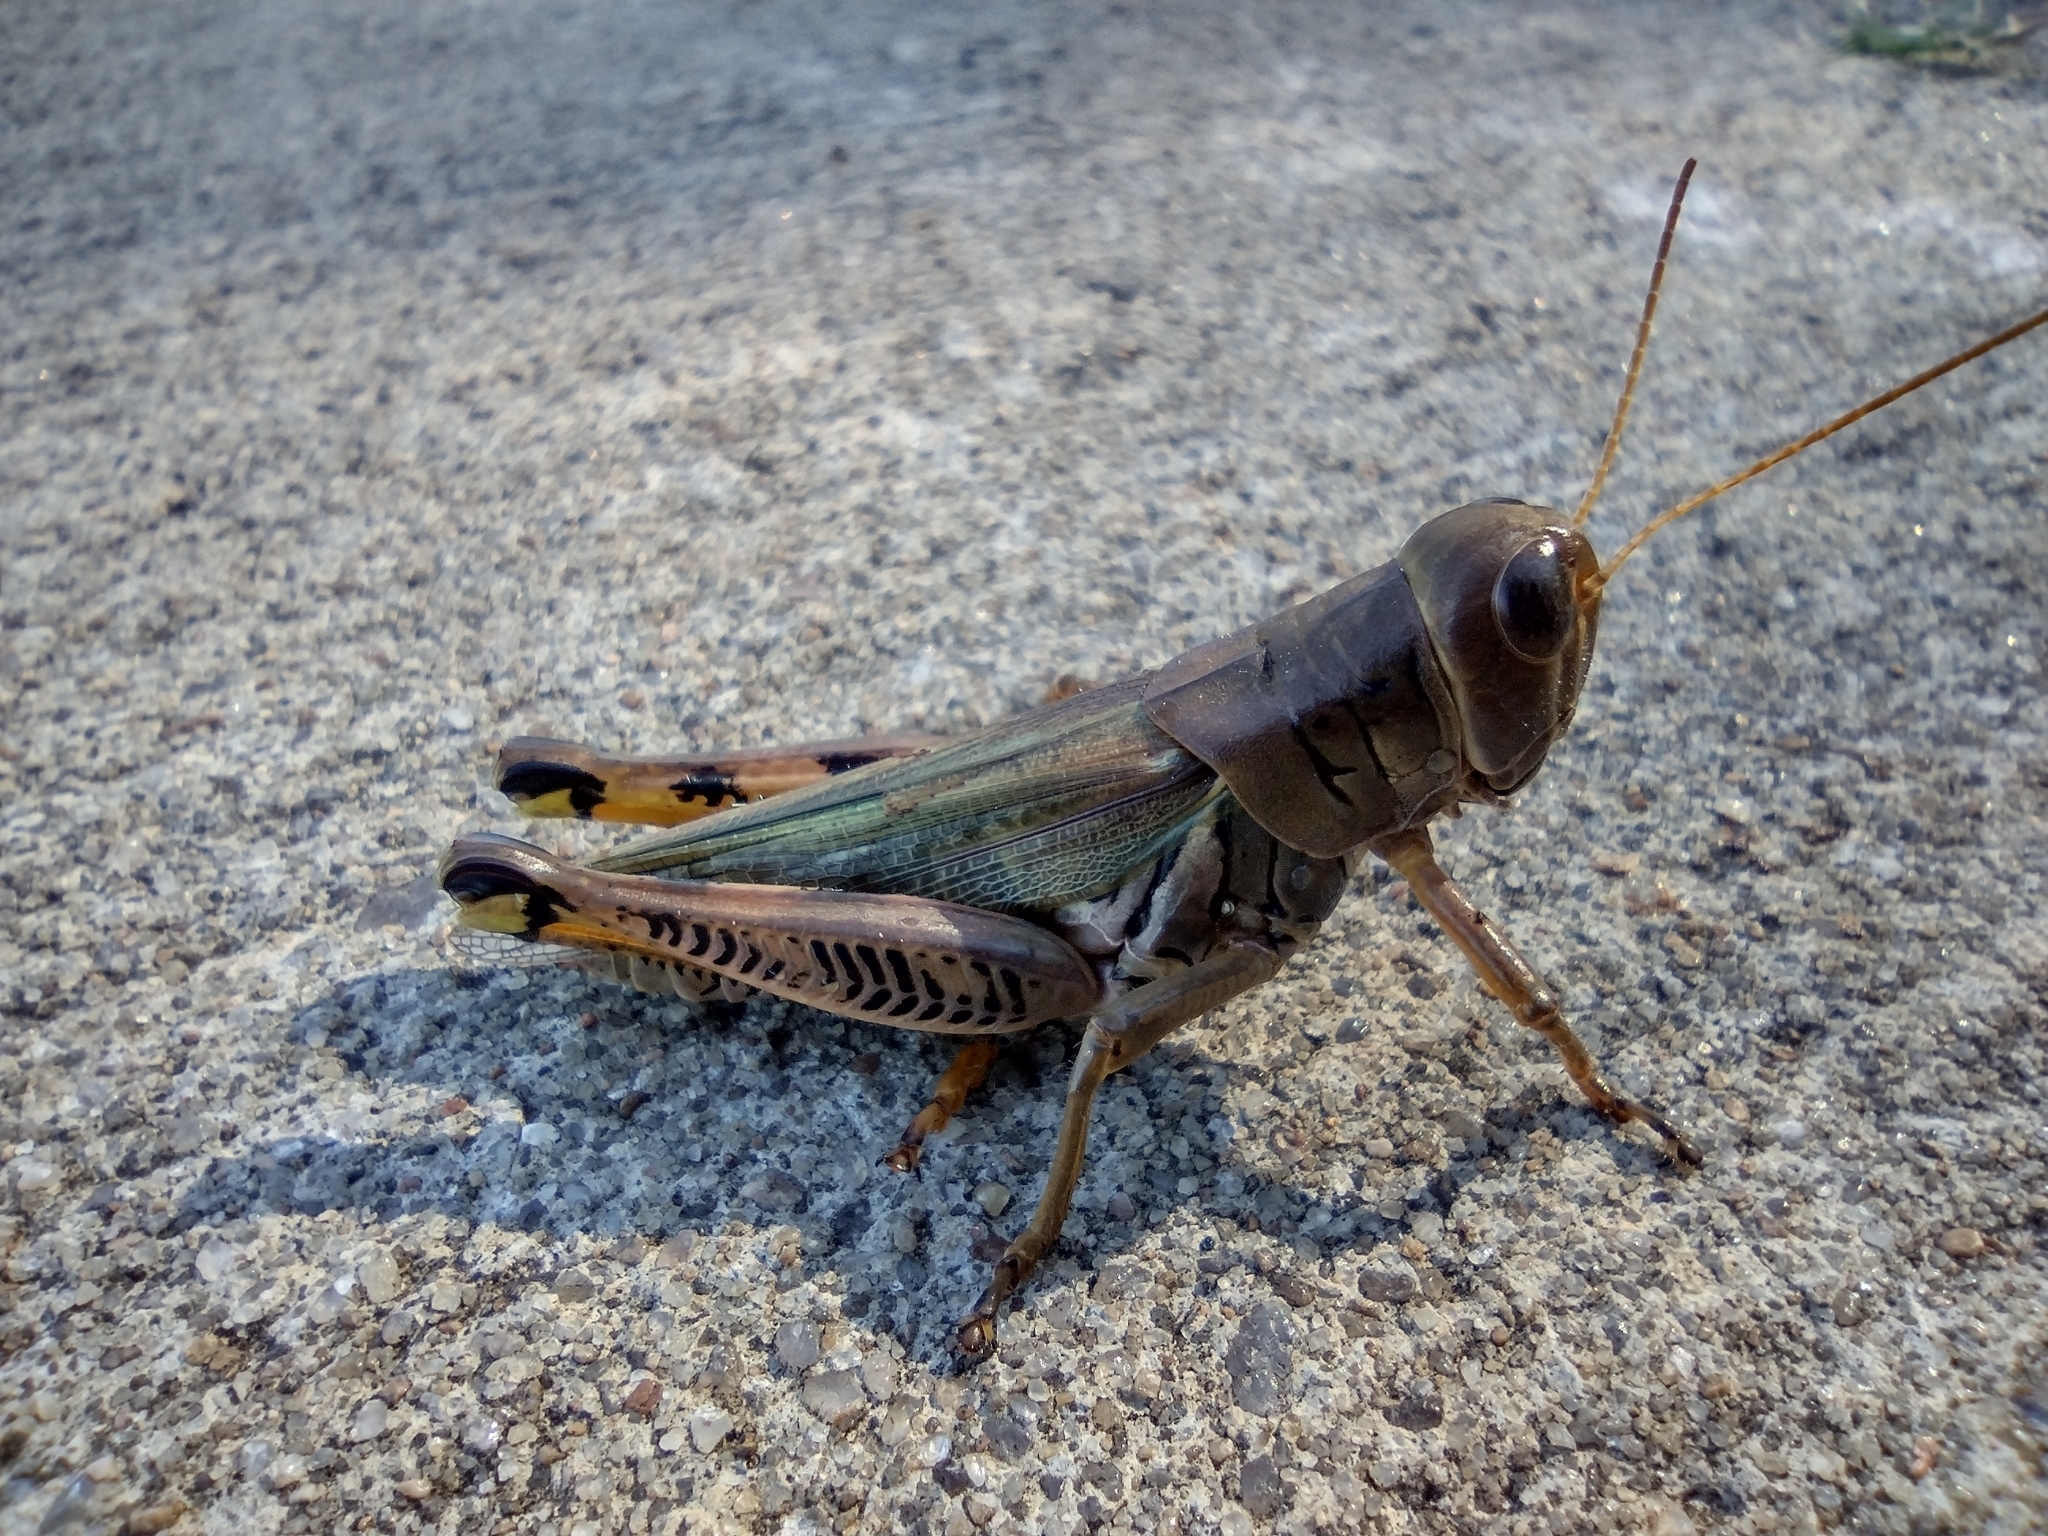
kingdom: Animalia
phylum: Arthropoda
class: Insecta
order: Orthoptera
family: Acrididae
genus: Melanoplus
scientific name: Melanoplus differentialis
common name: Differential grasshopper
